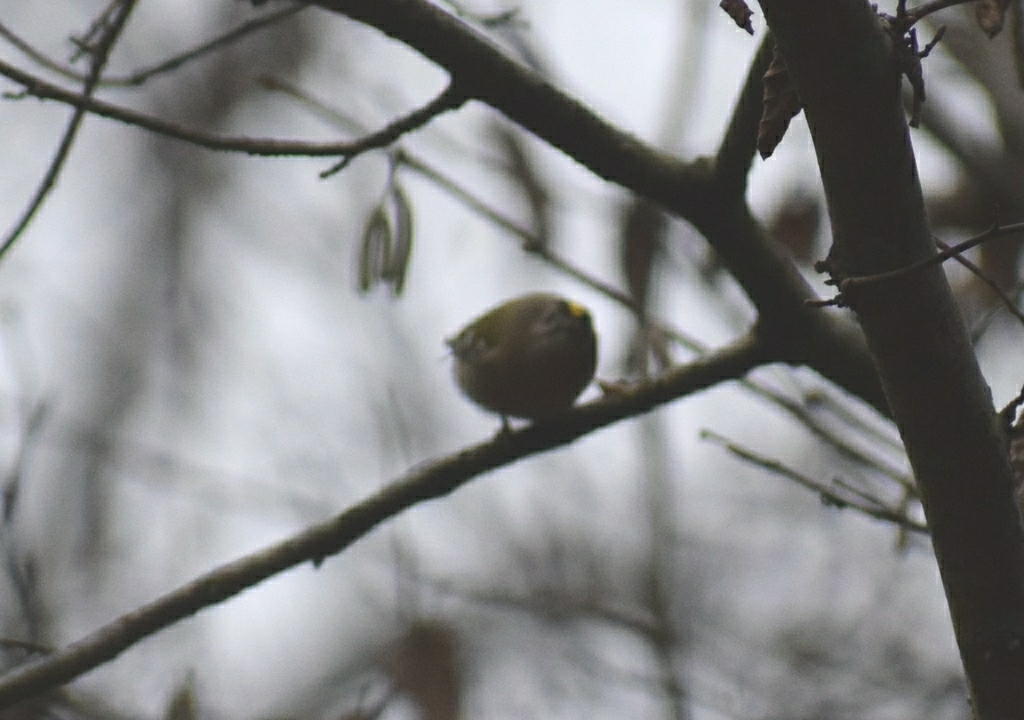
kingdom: Animalia
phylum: Chordata
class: Aves
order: Passeriformes
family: Regulidae
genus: Regulus
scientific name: Regulus regulus
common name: Goldcrest
